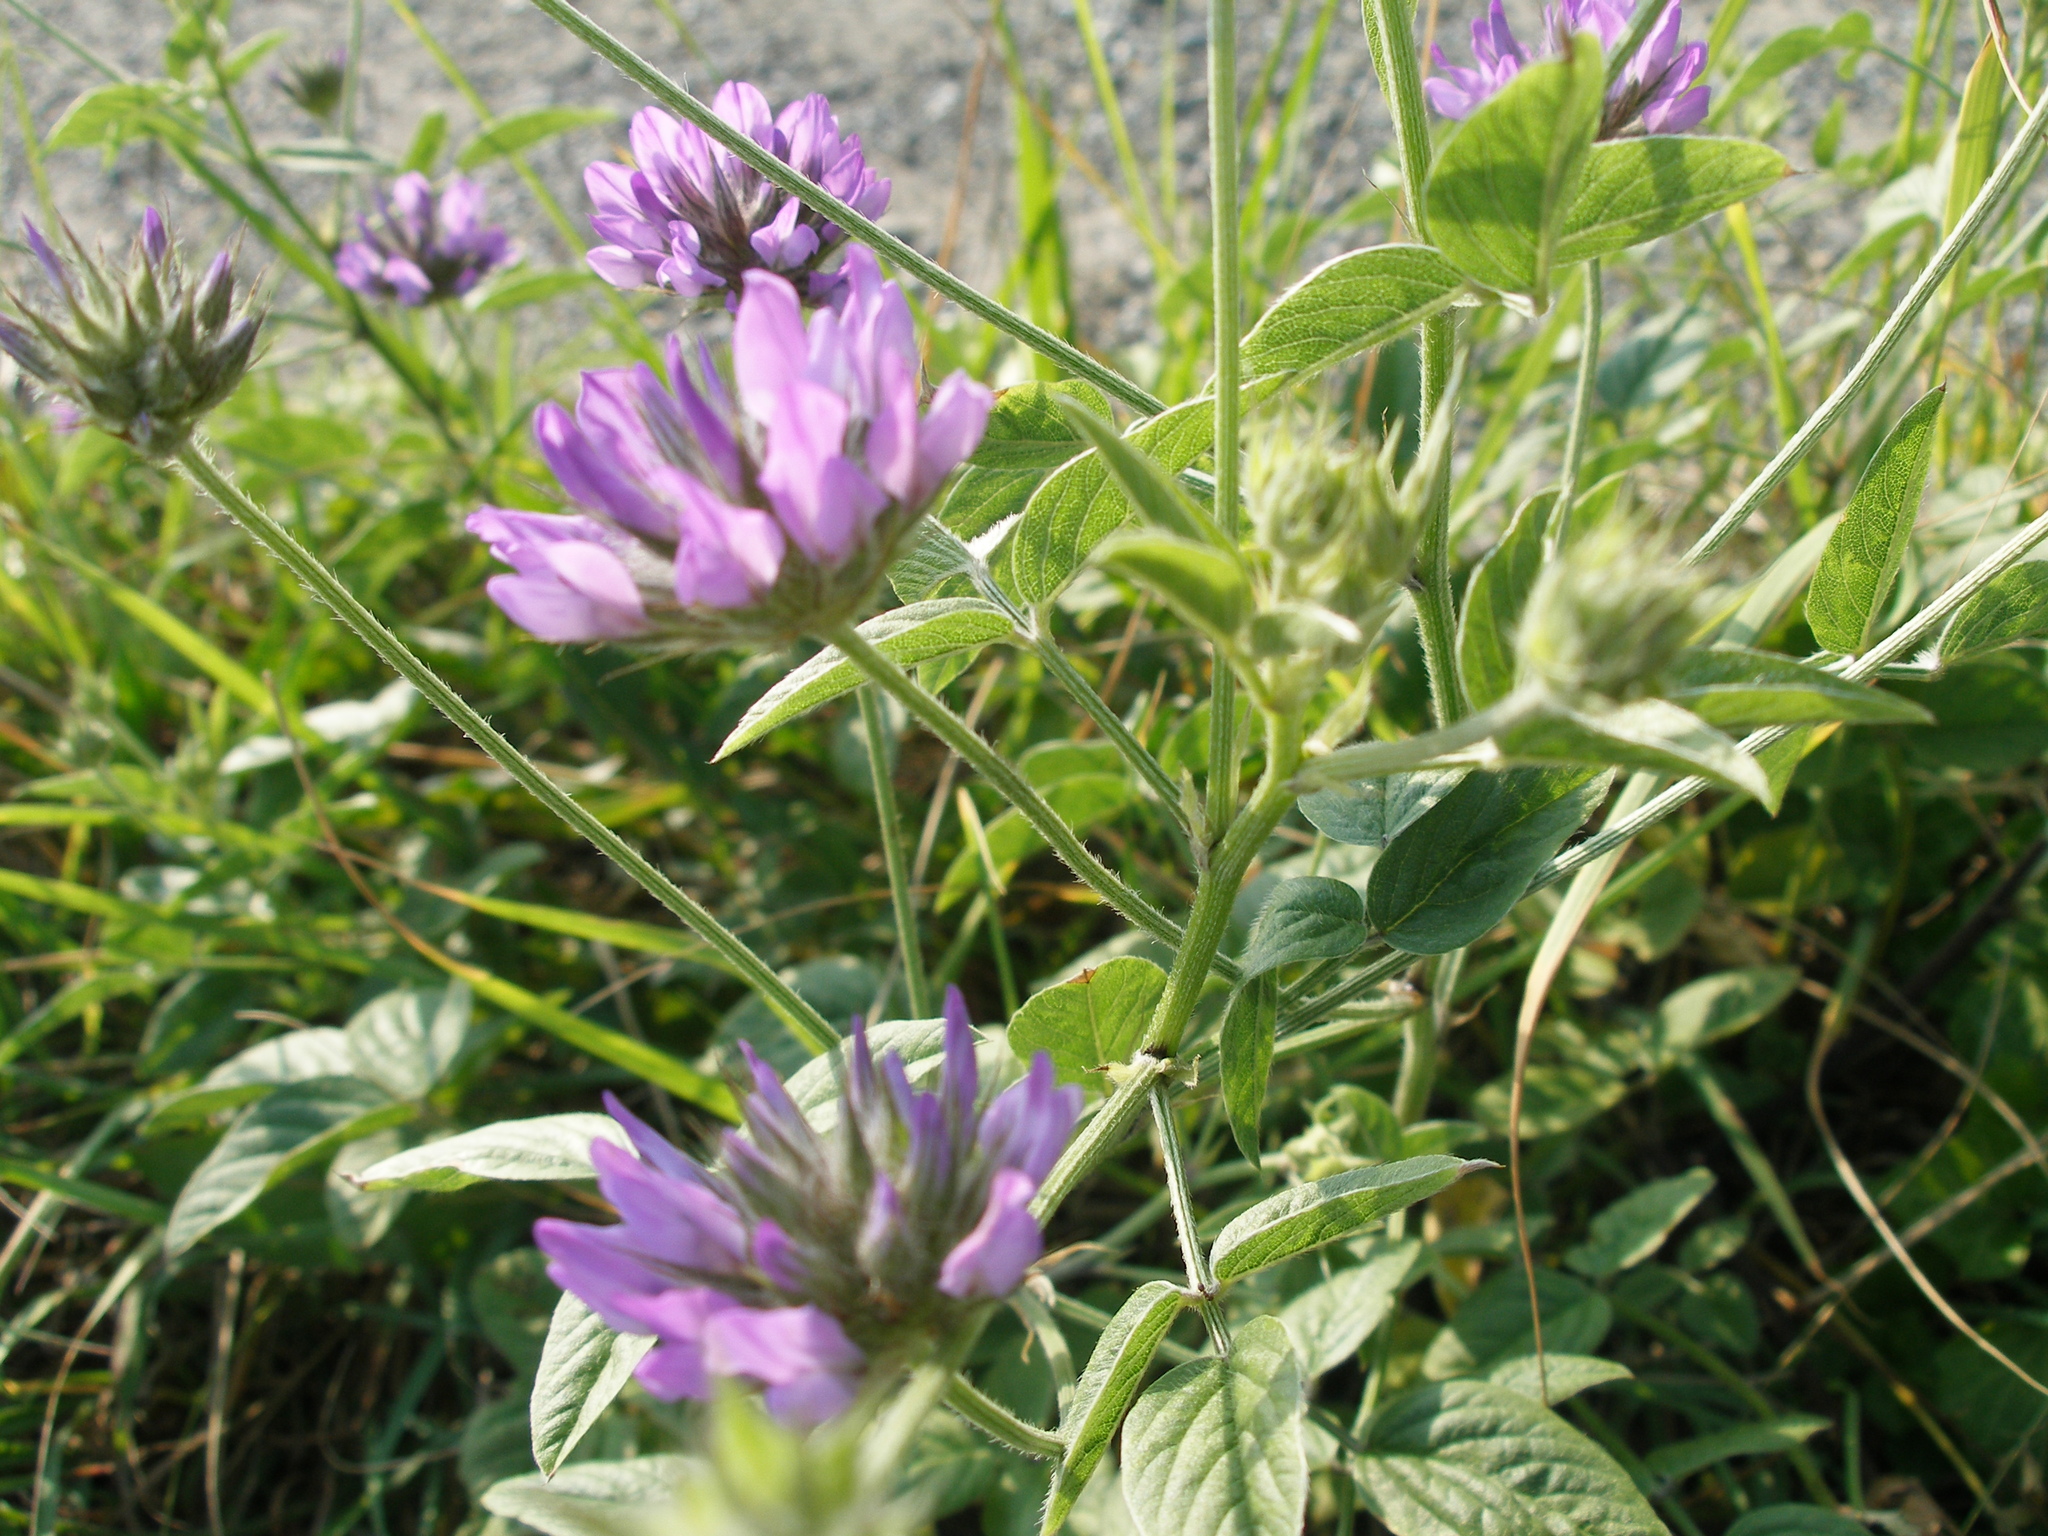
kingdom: Plantae
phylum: Tracheophyta
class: Magnoliopsida
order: Fabales
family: Fabaceae
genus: Bituminaria
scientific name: Bituminaria bituminosa
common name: Arabian pea
